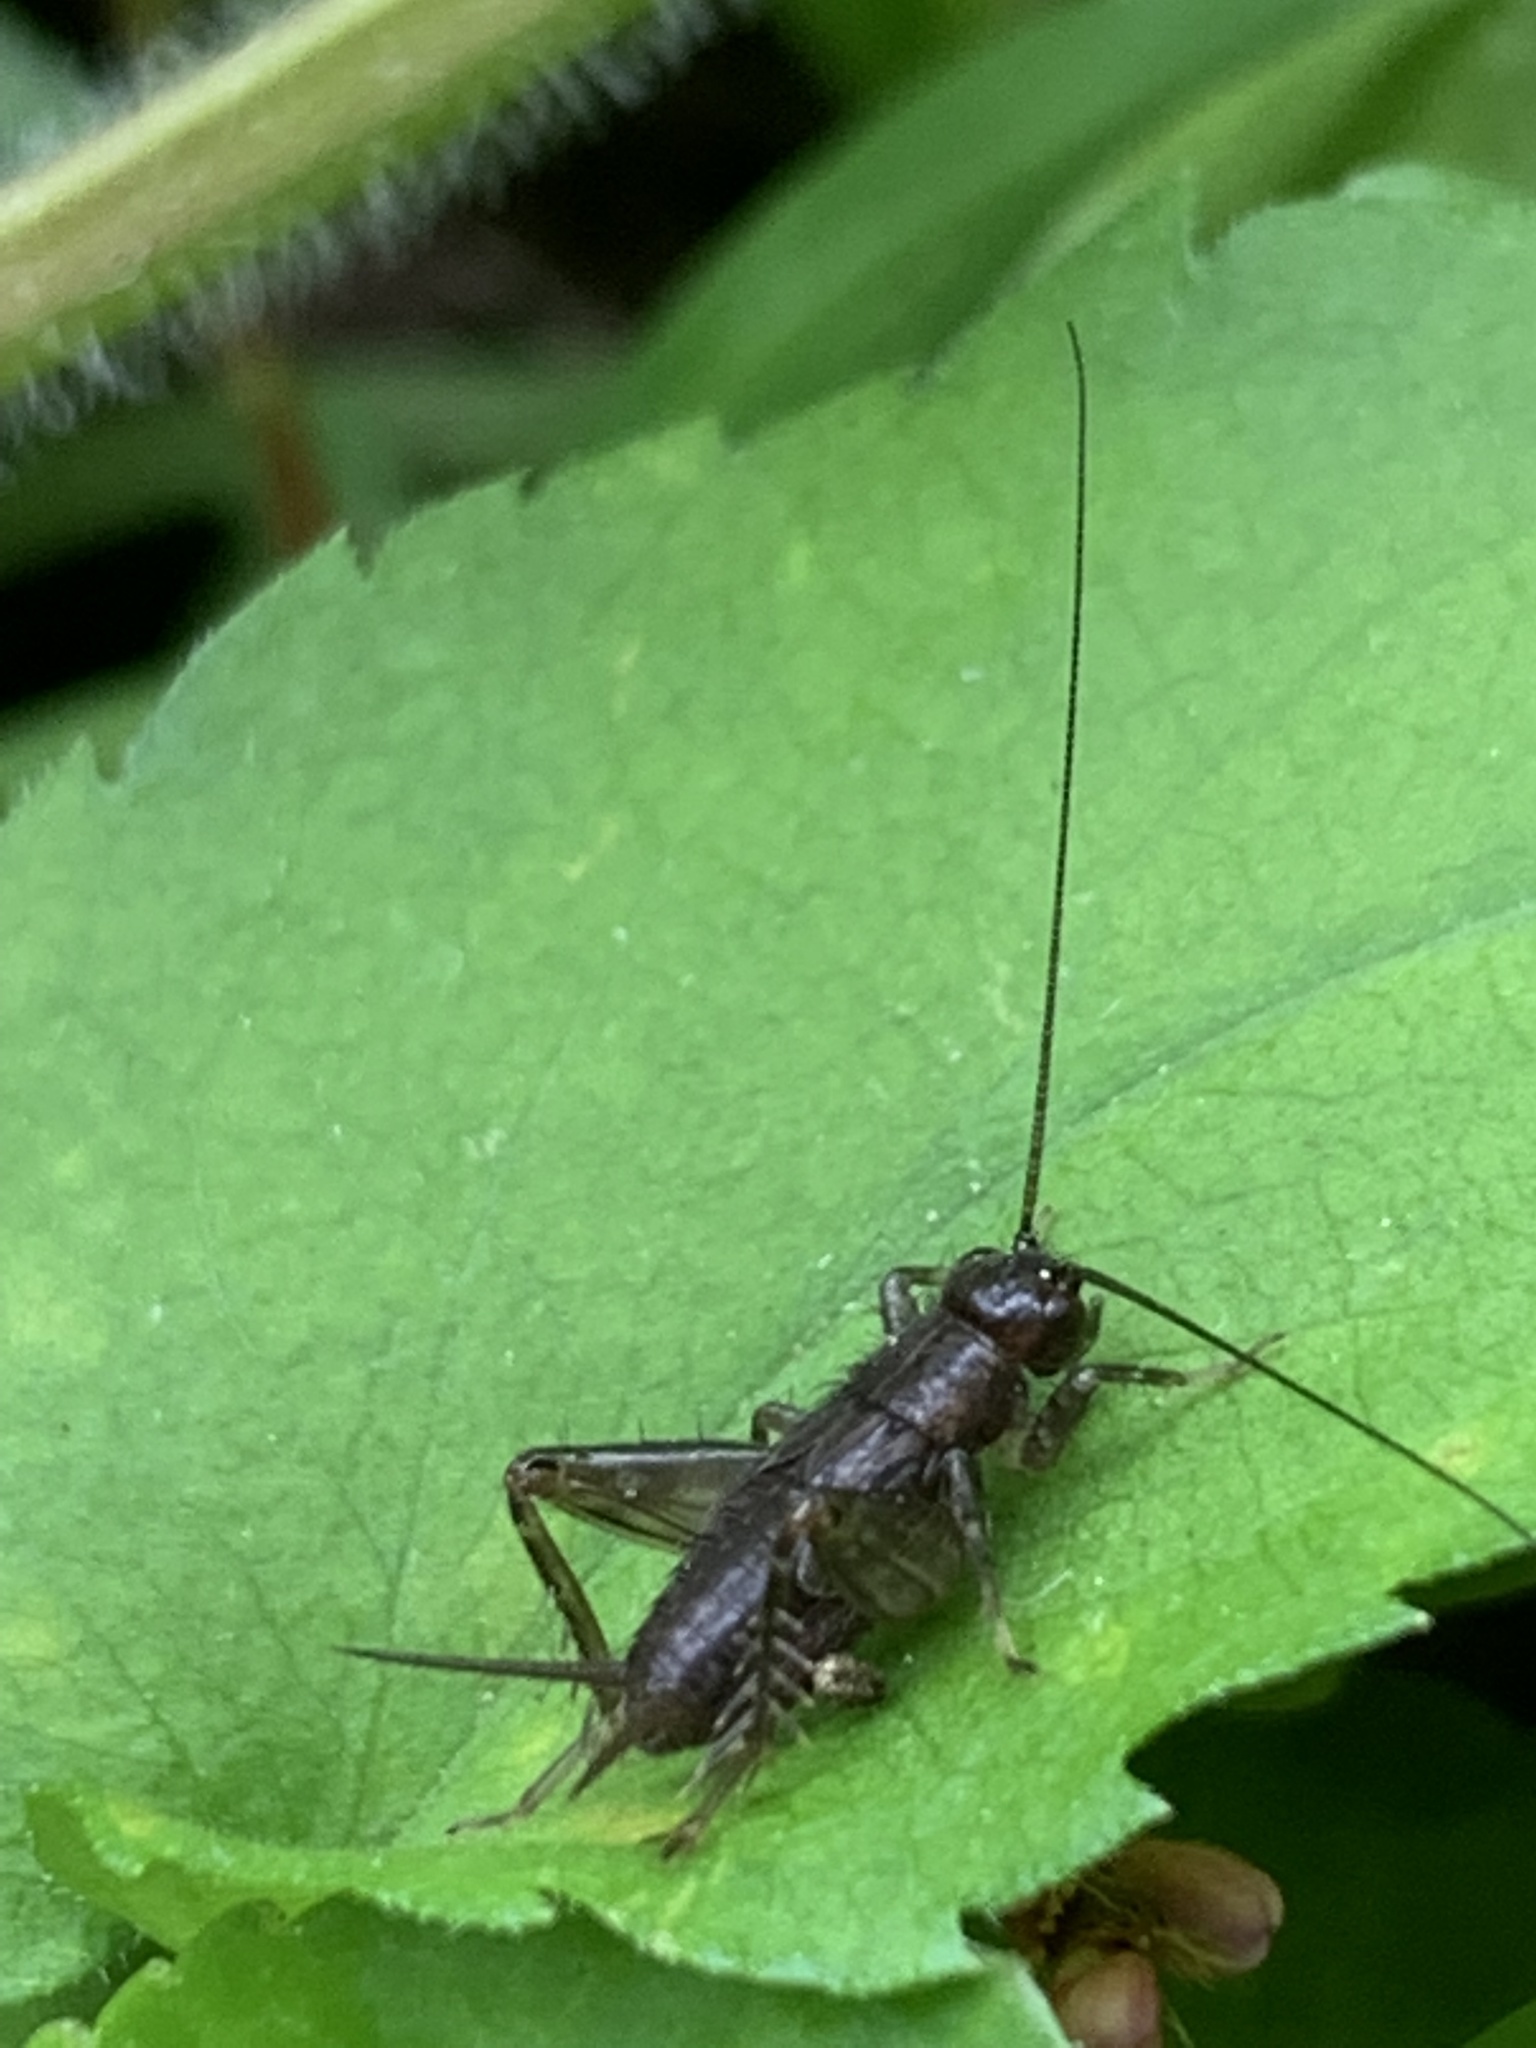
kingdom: Animalia
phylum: Arthropoda
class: Insecta
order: Orthoptera
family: Trigonidiidae
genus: Eunemobius
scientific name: Eunemobius carolinus
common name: Carolina ground cricket
